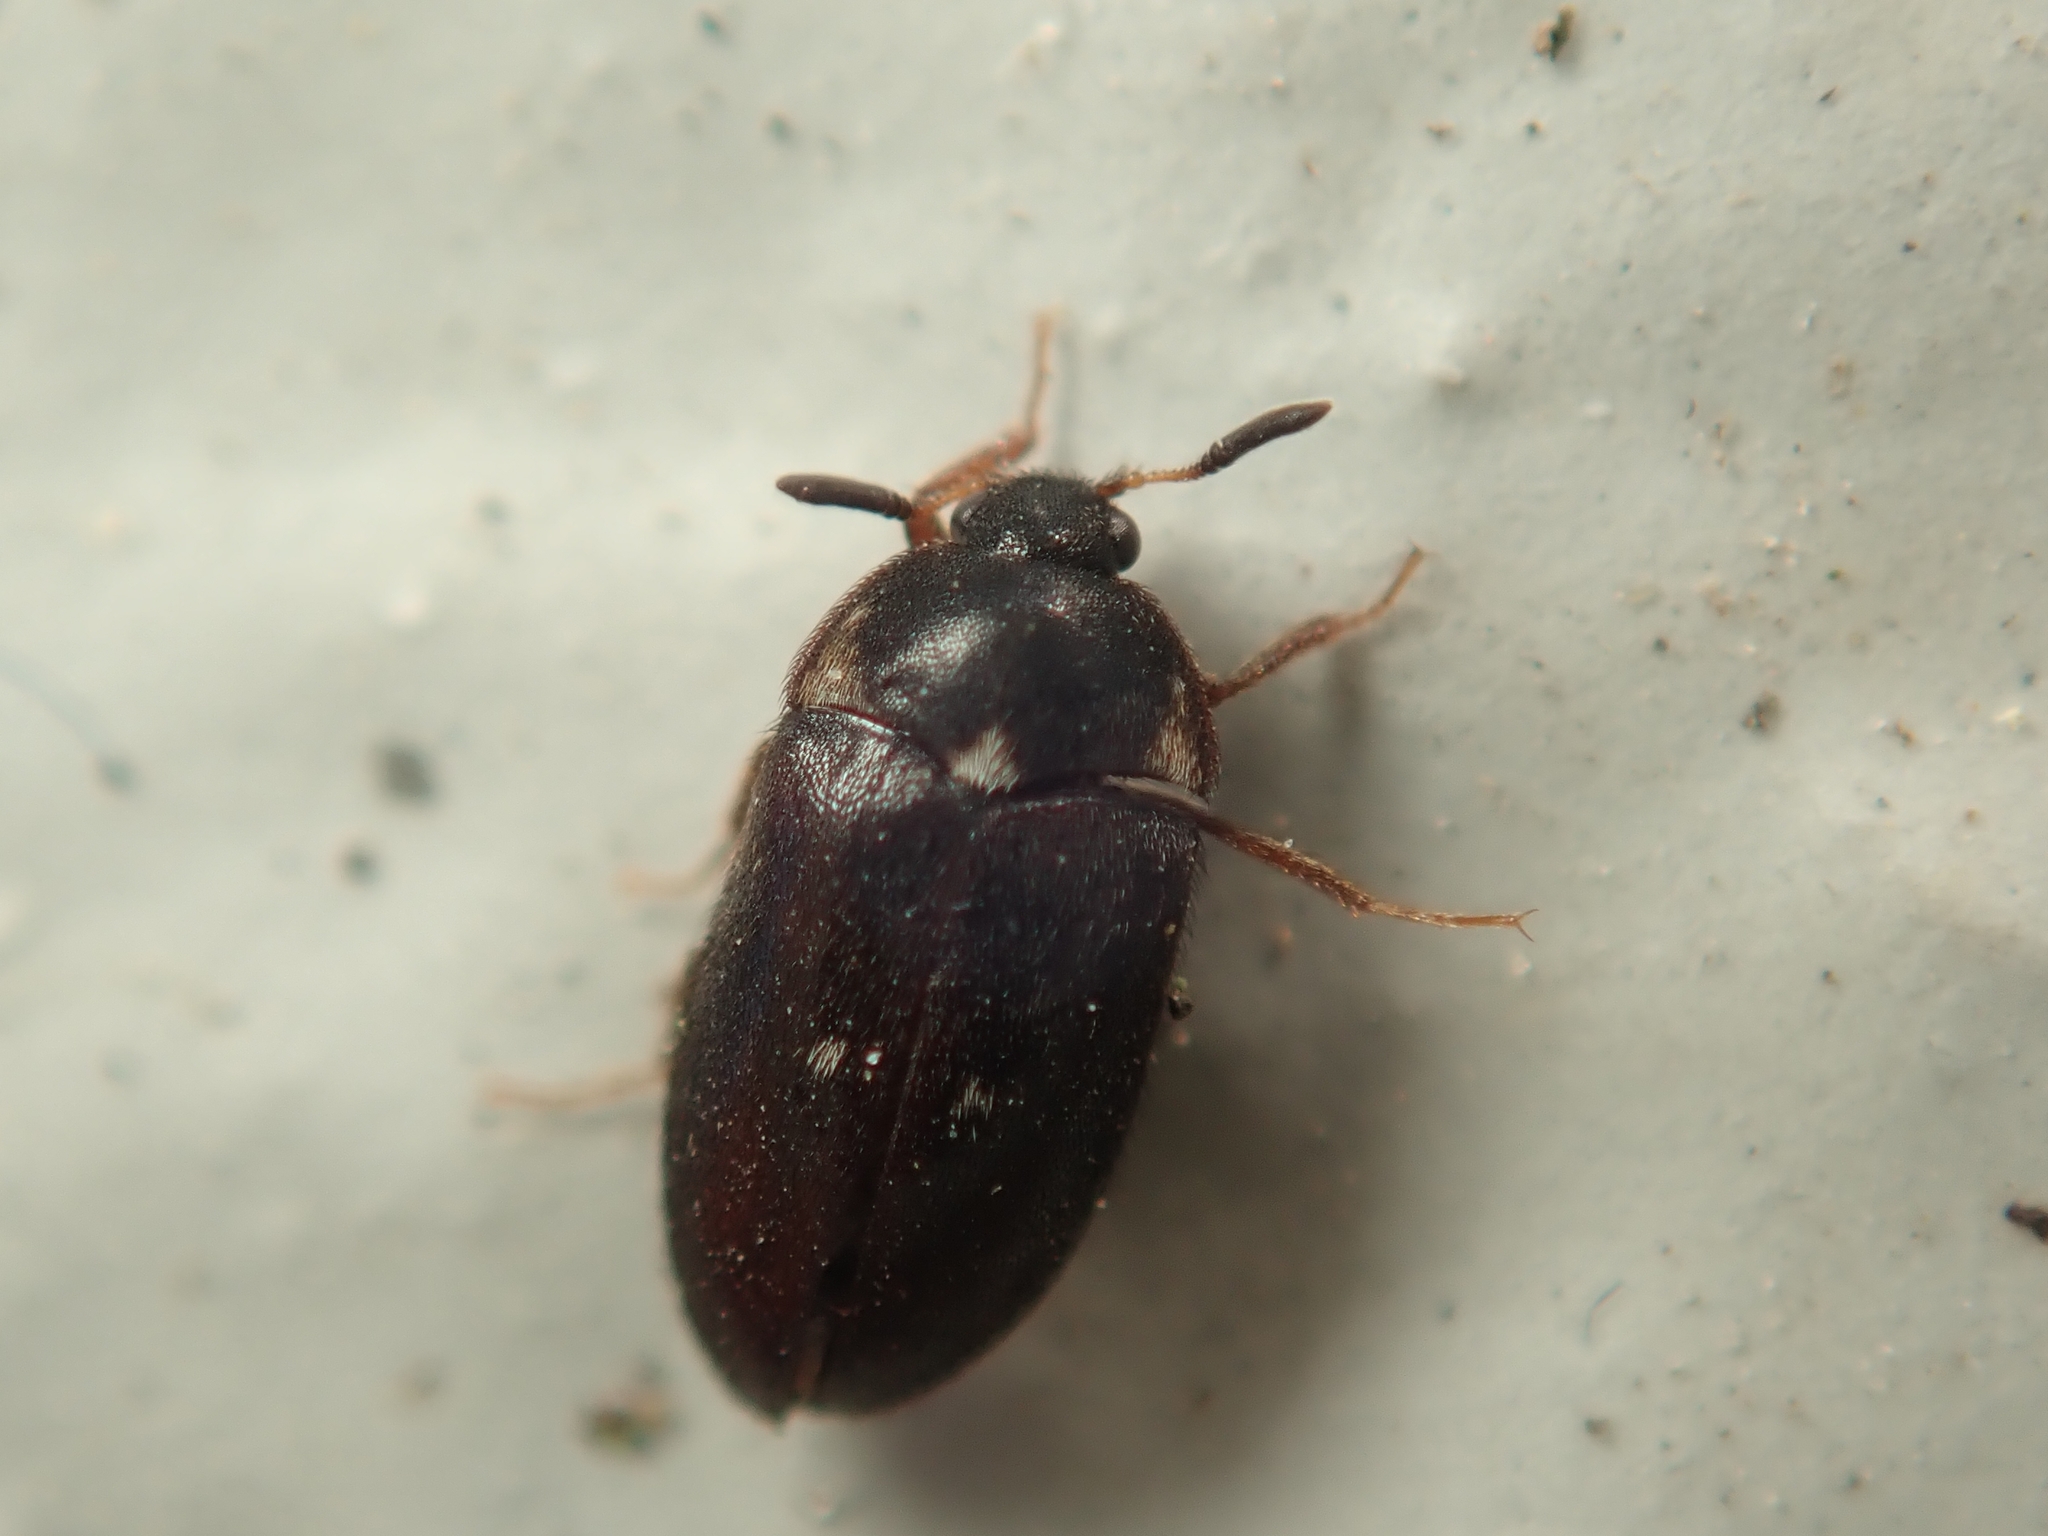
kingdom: Animalia
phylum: Arthropoda
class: Insecta
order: Coleoptera
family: Dermestidae
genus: Attagenus
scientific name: Attagenus pellio
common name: Two-spotted carpet beetle
